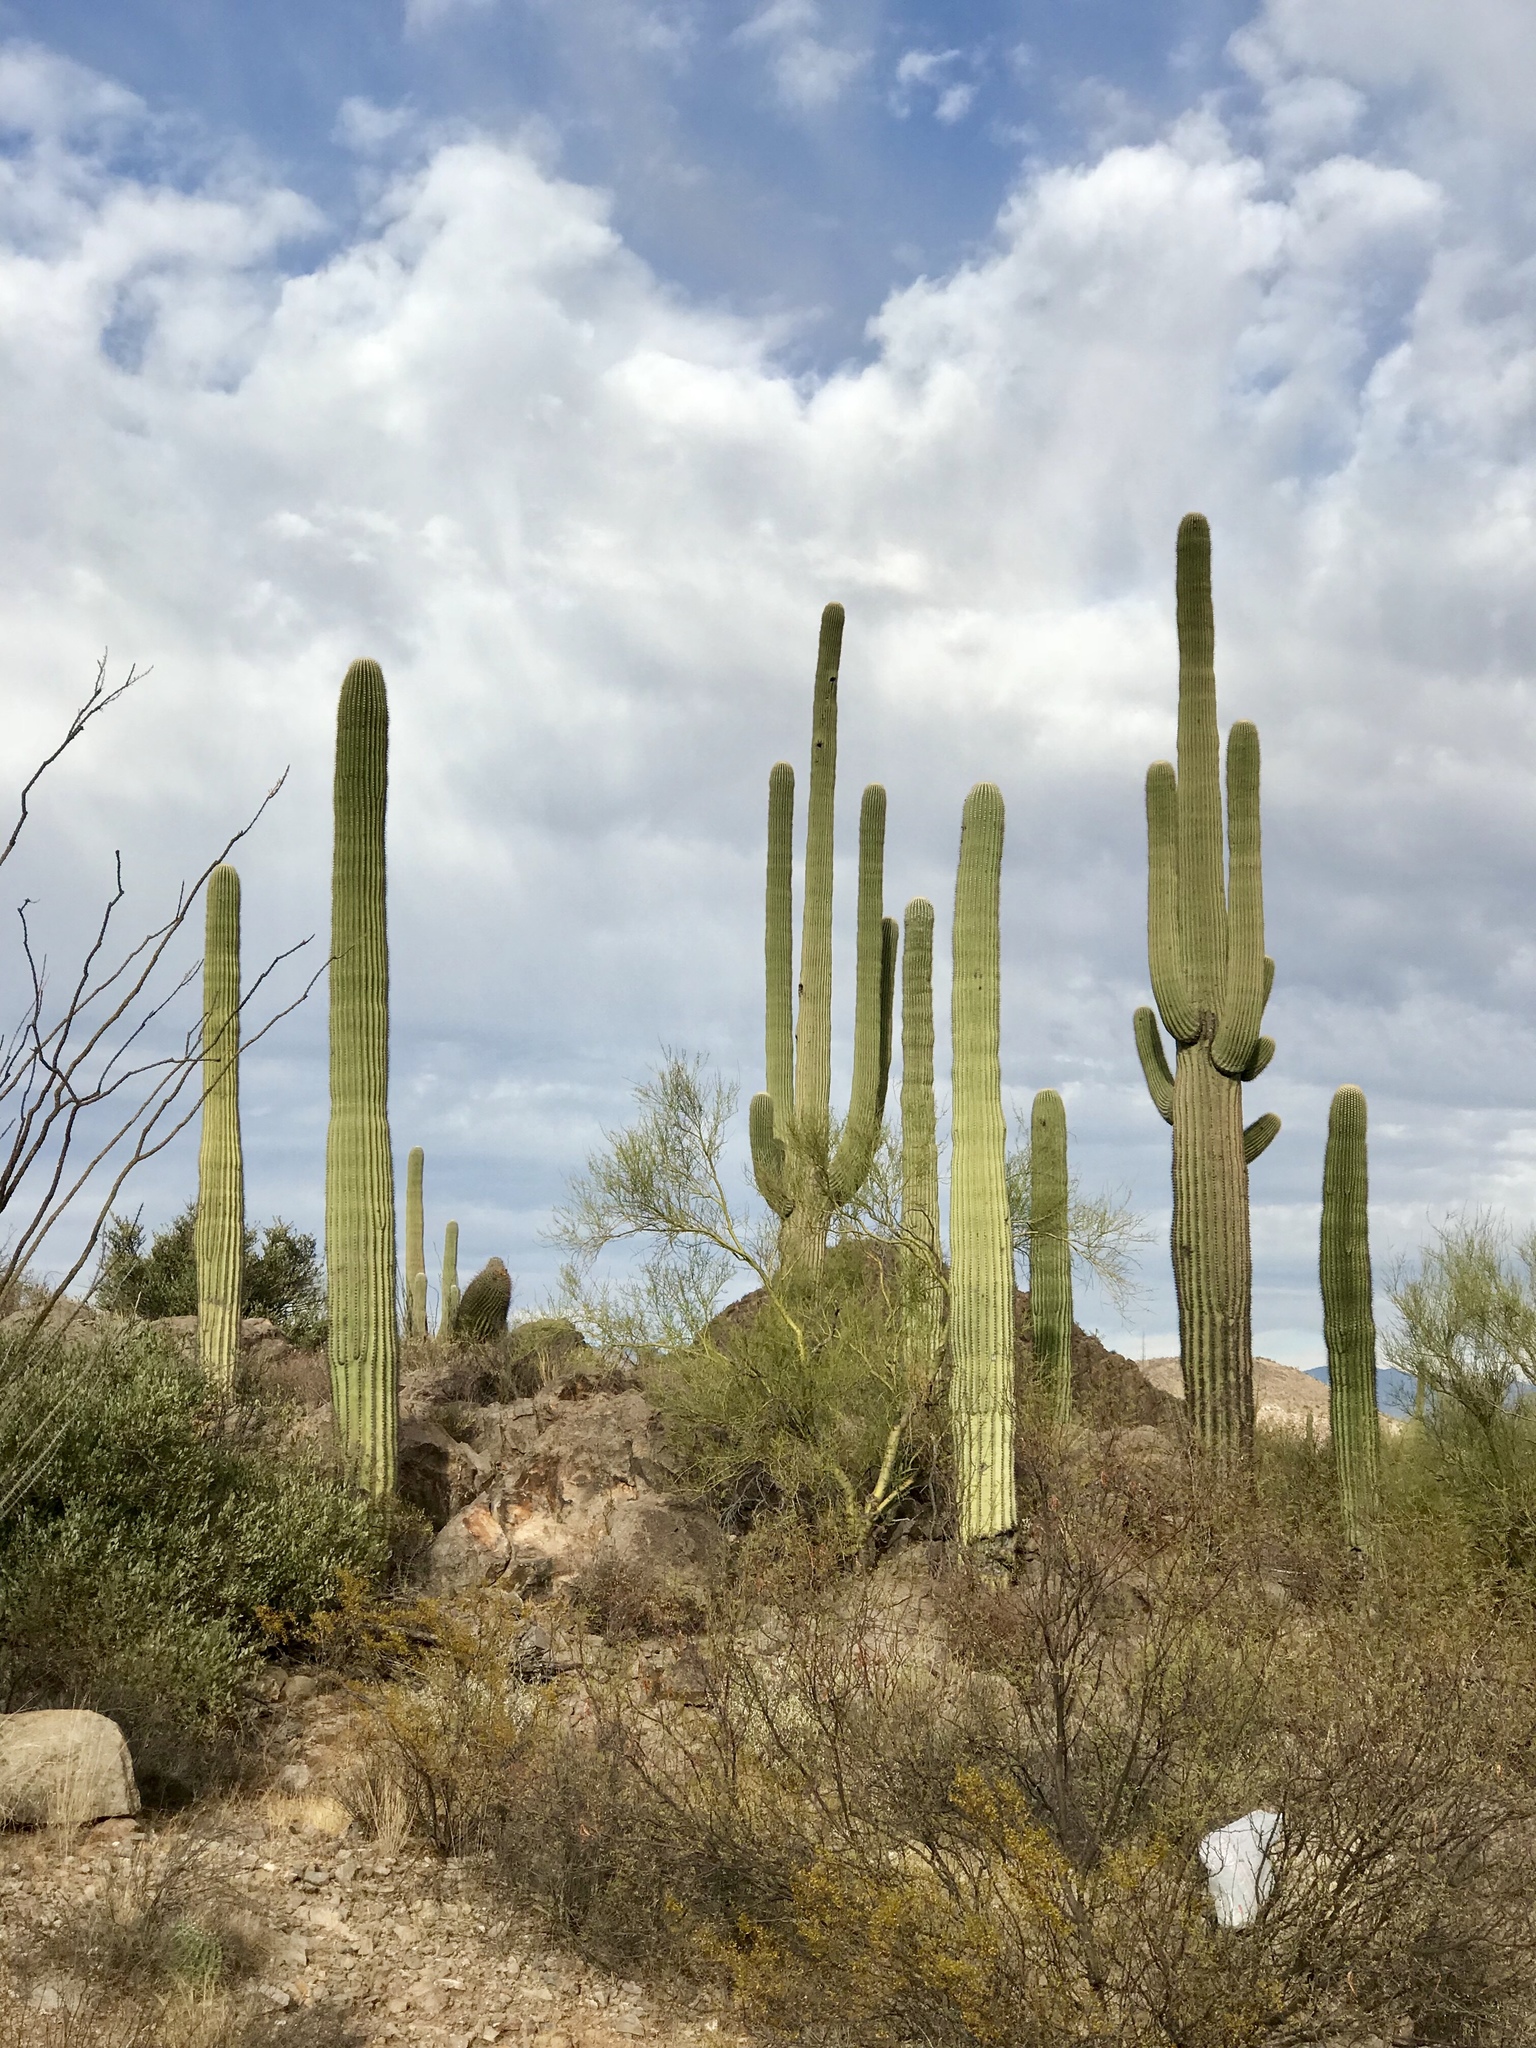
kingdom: Plantae
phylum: Tracheophyta
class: Magnoliopsida
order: Caryophyllales
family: Cactaceae
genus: Carnegiea
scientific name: Carnegiea gigantea
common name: Saguaro
